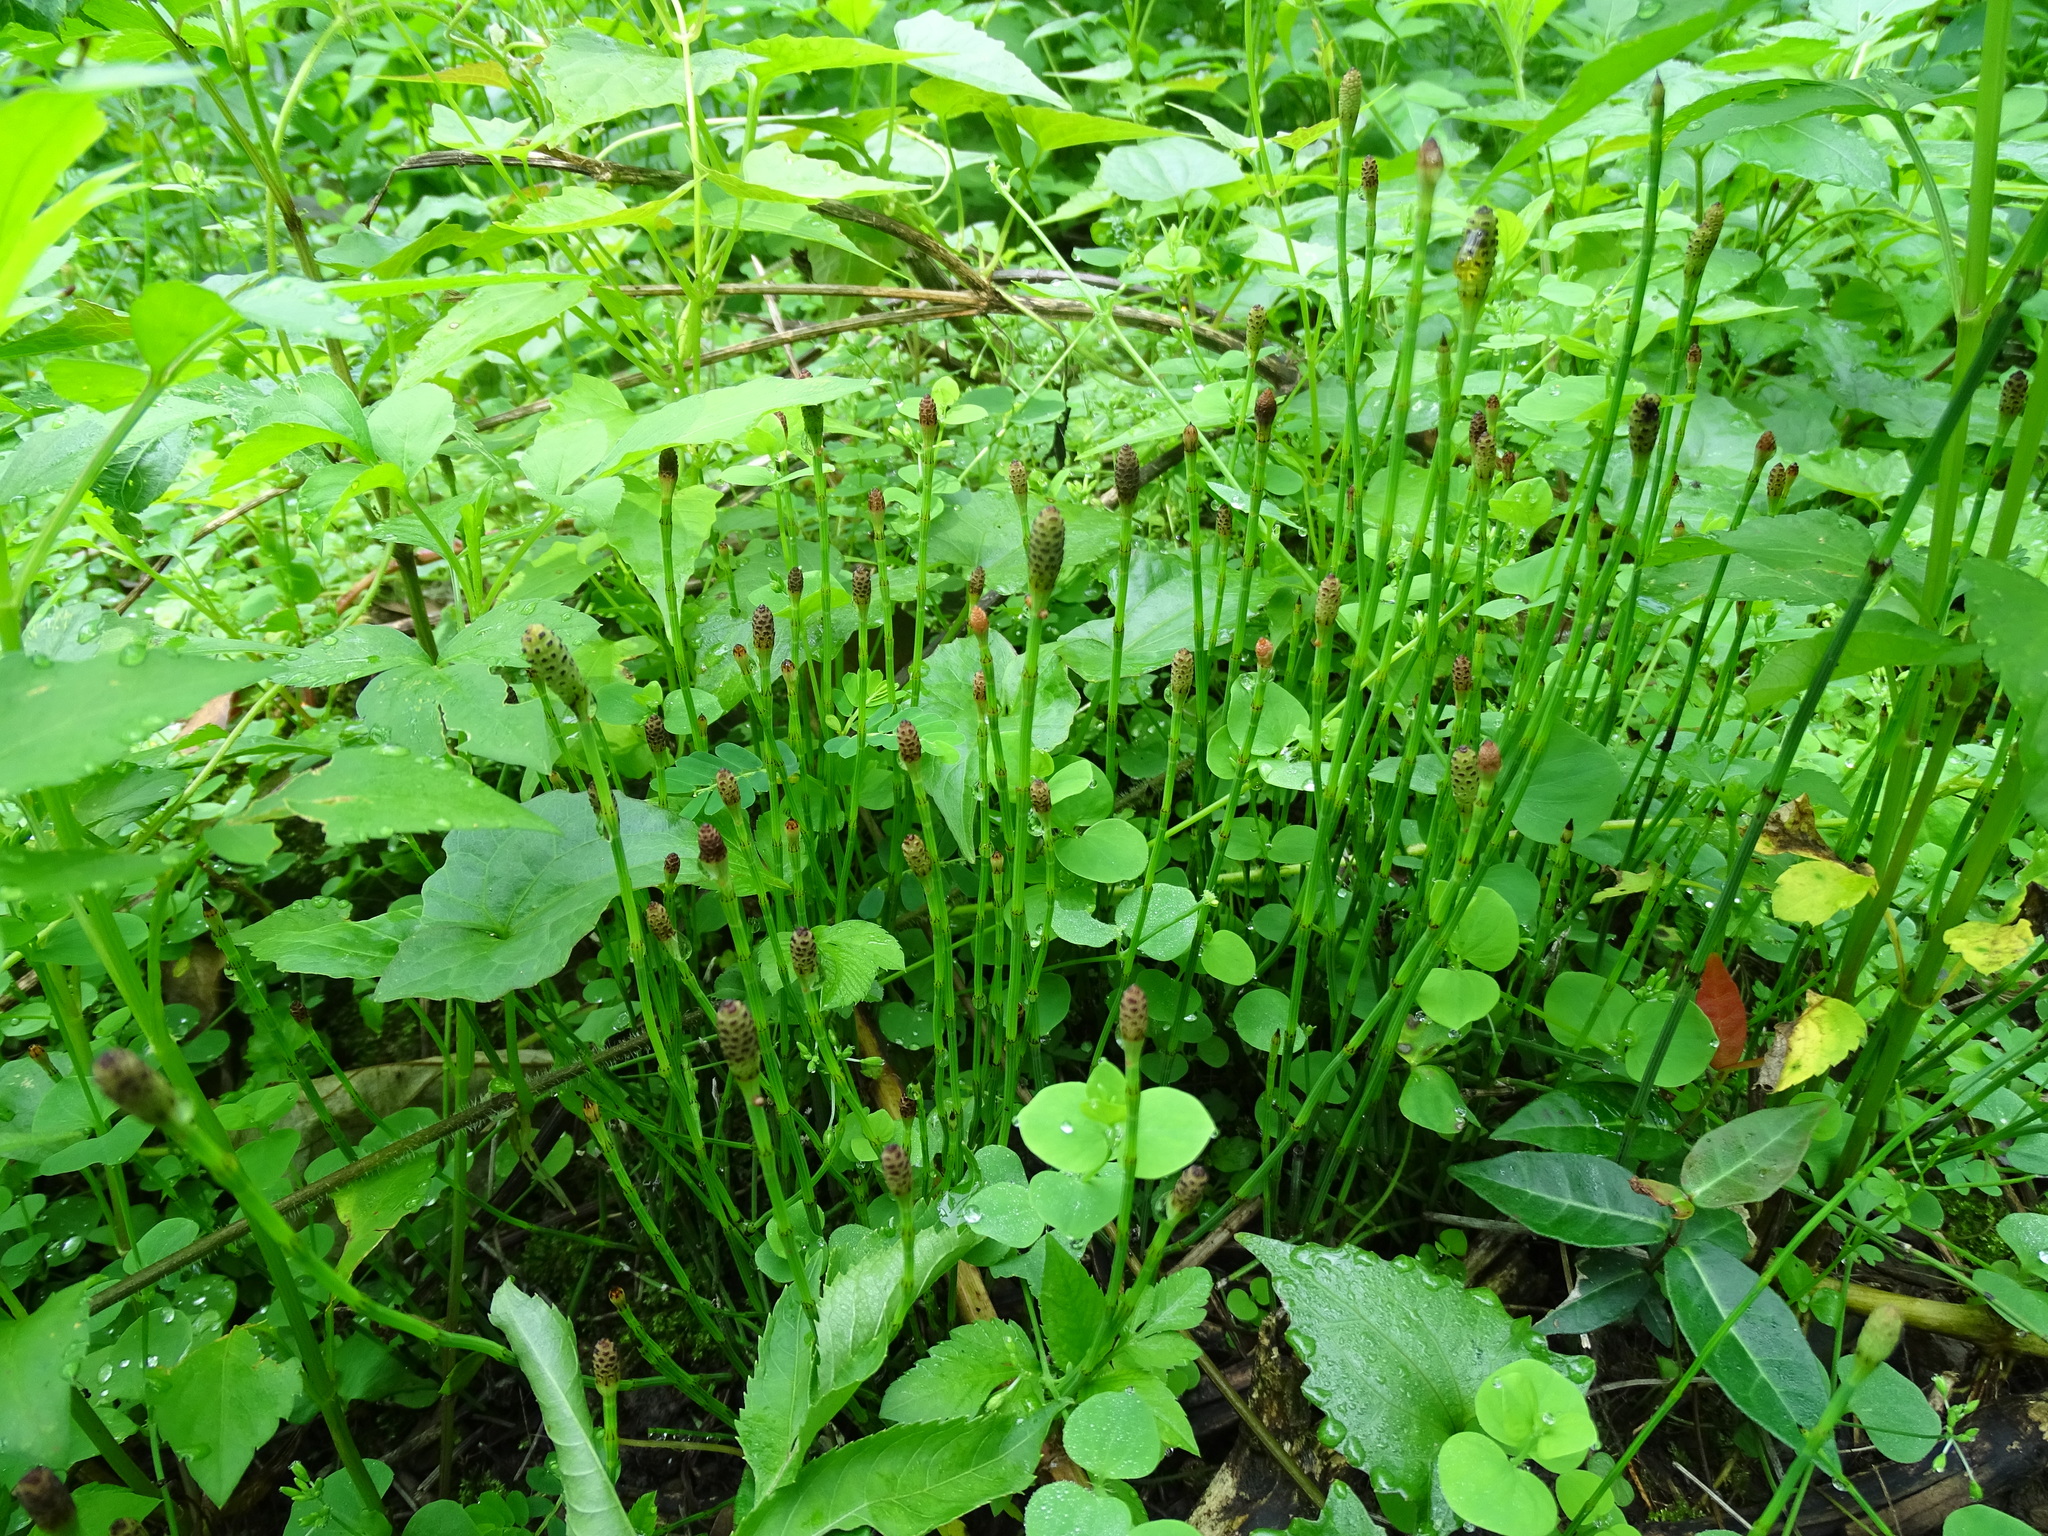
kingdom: Plantae
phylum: Tracheophyta
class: Polypodiopsida
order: Equisetales
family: Equisetaceae
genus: Equisetum
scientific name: Equisetum ramosissimum
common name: Branched horsetail
